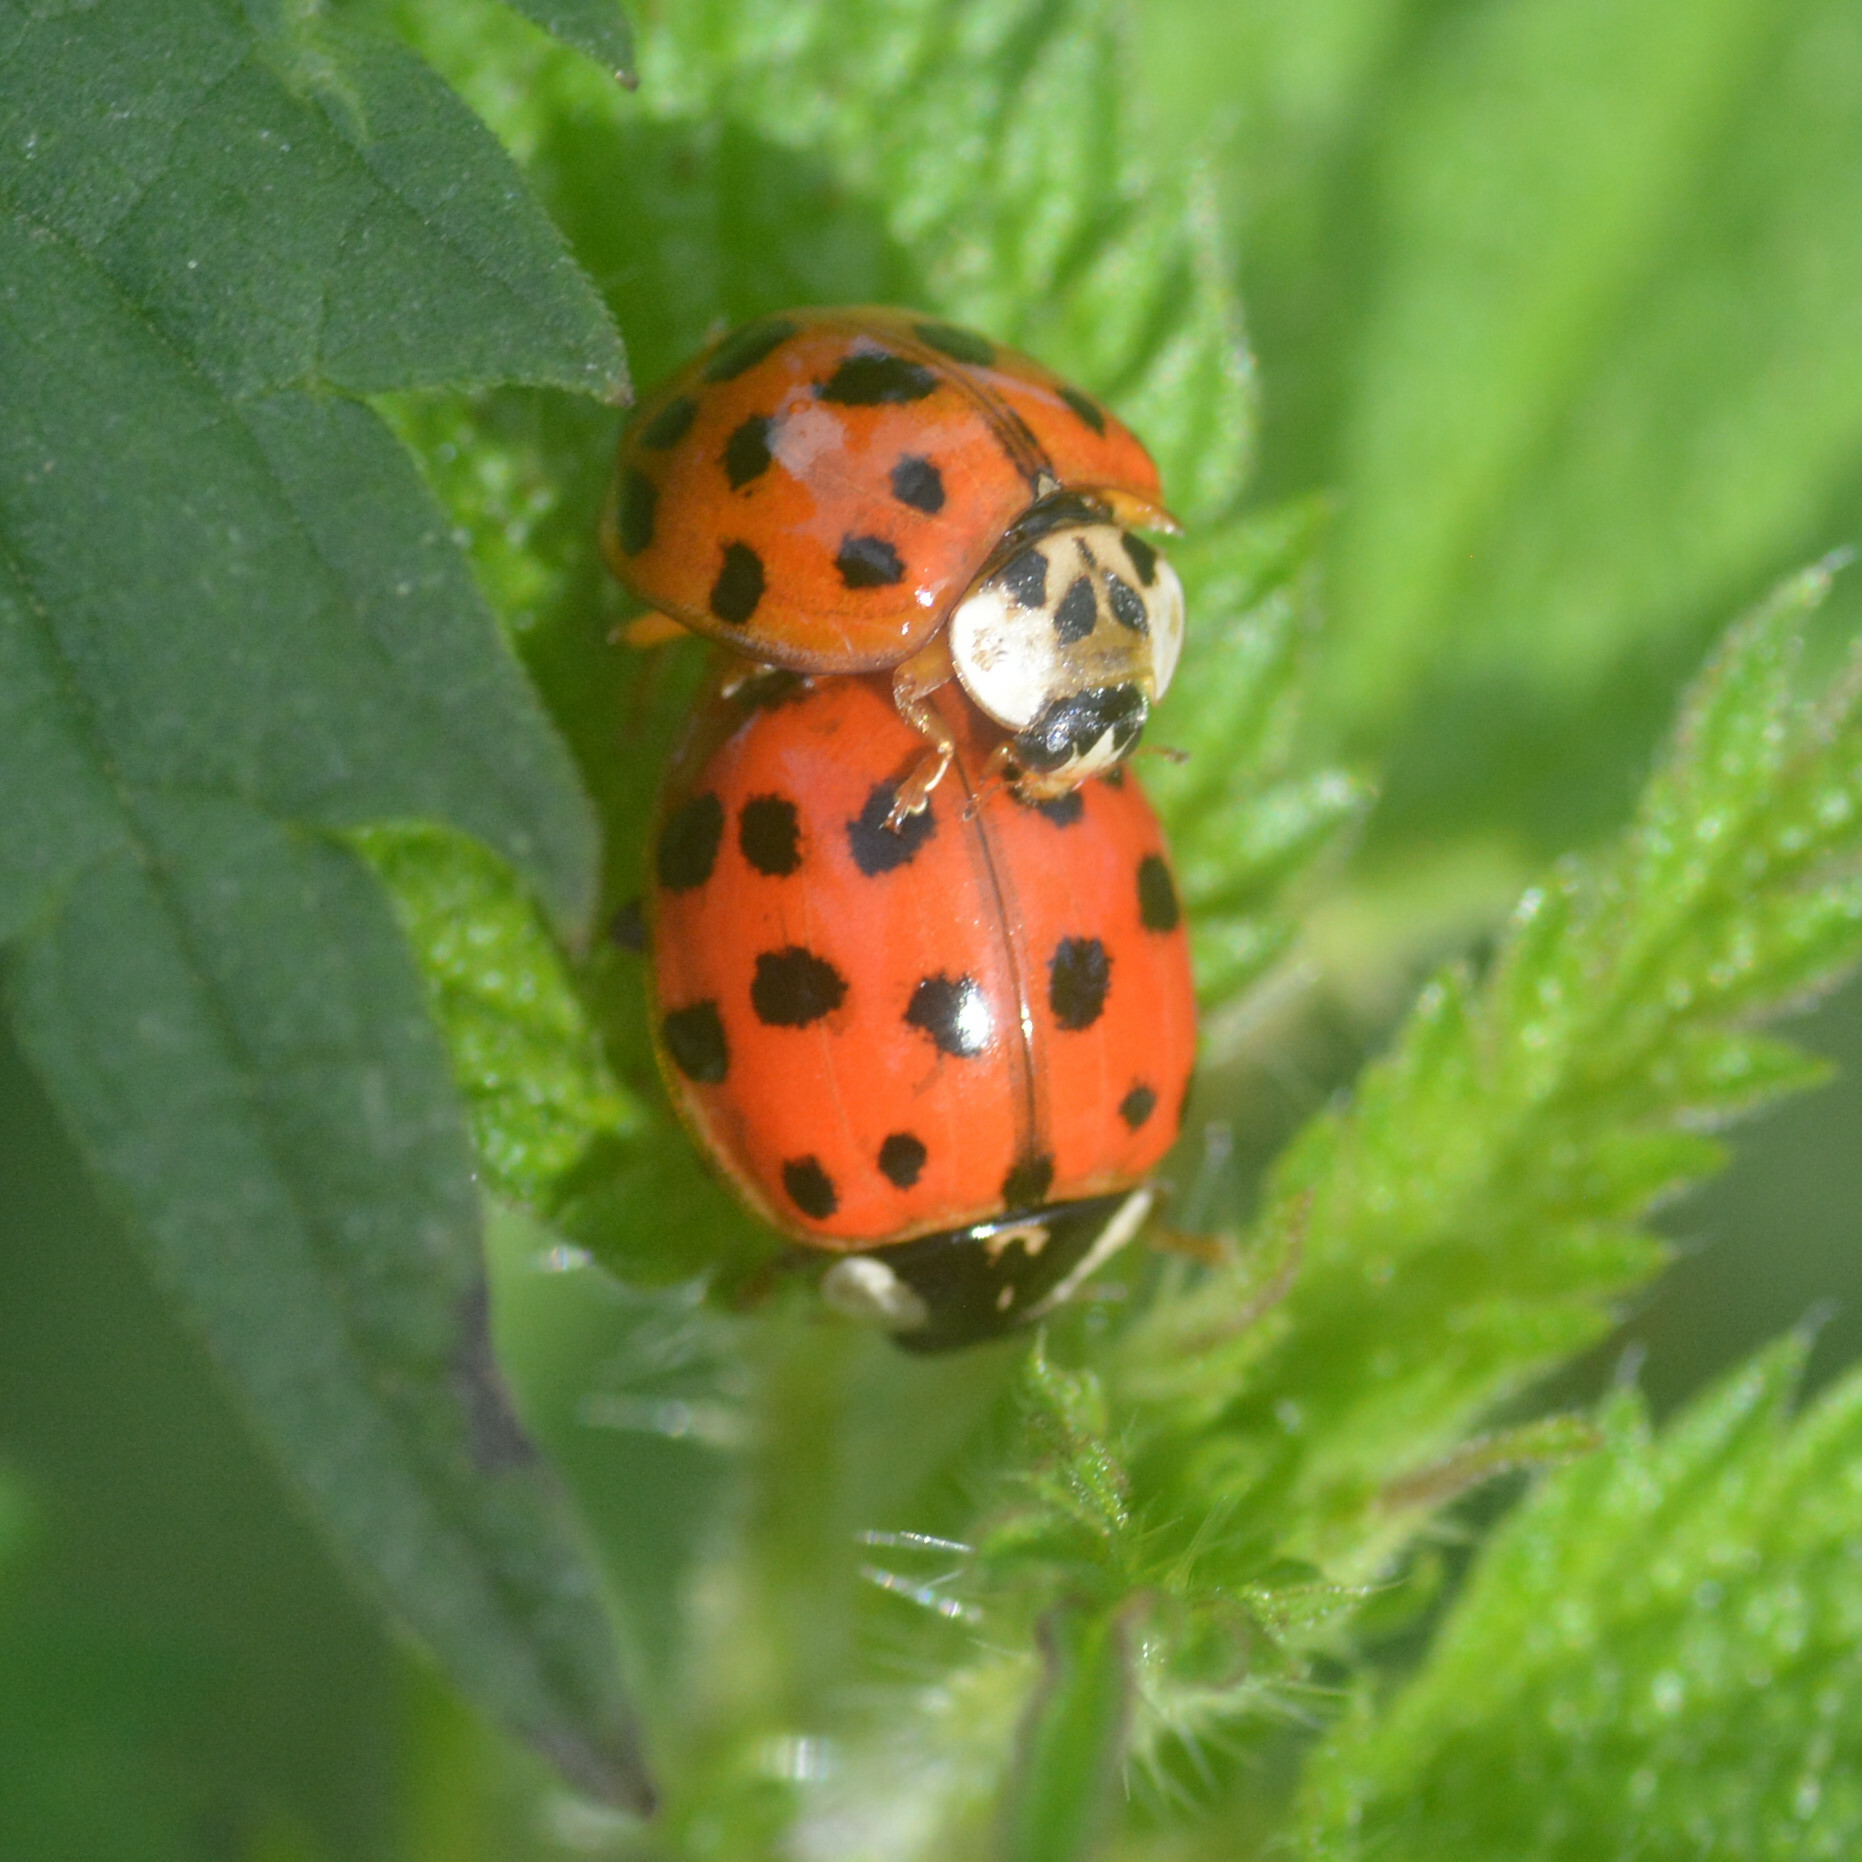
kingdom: Animalia
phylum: Arthropoda
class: Insecta
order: Coleoptera
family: Coccinellidae
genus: Harmonia
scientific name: Harmonia axyridis
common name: Harlequin ladybird
